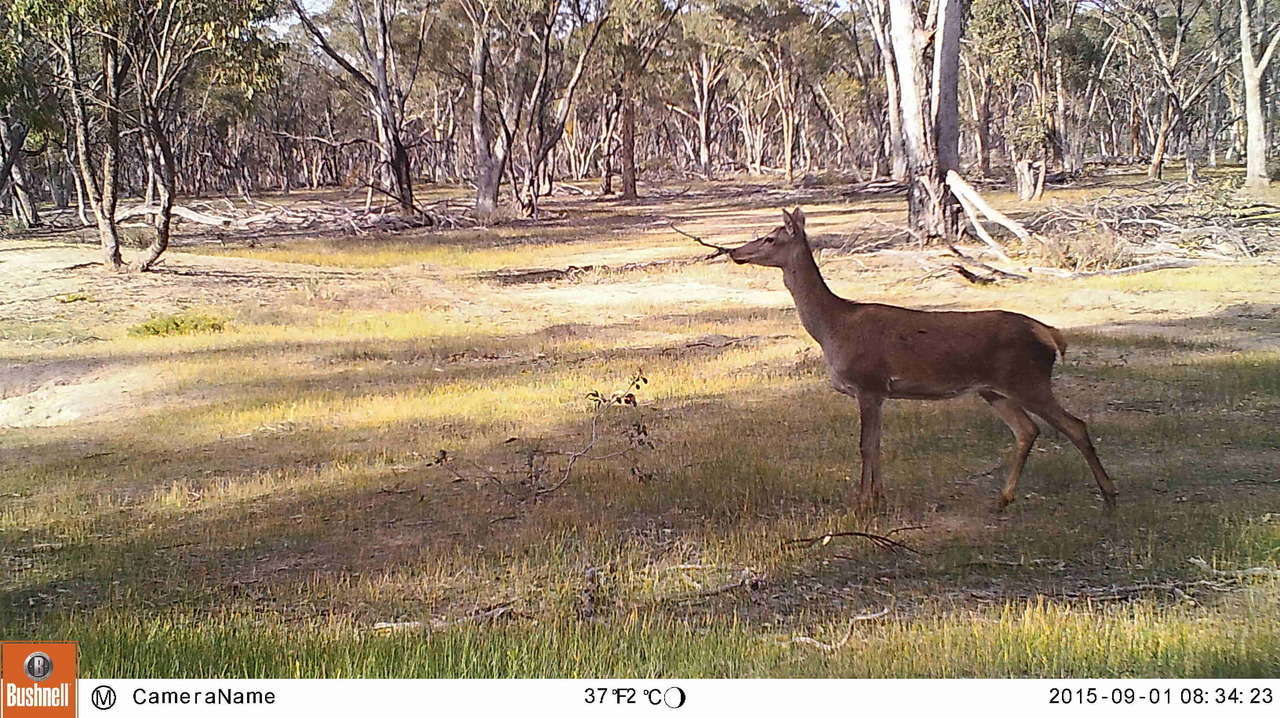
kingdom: Animalia
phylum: Chordata
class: Mammalia
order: Artiodactyla
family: Cervidae
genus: Cervus
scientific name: Cervus elaphus
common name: Red deer
